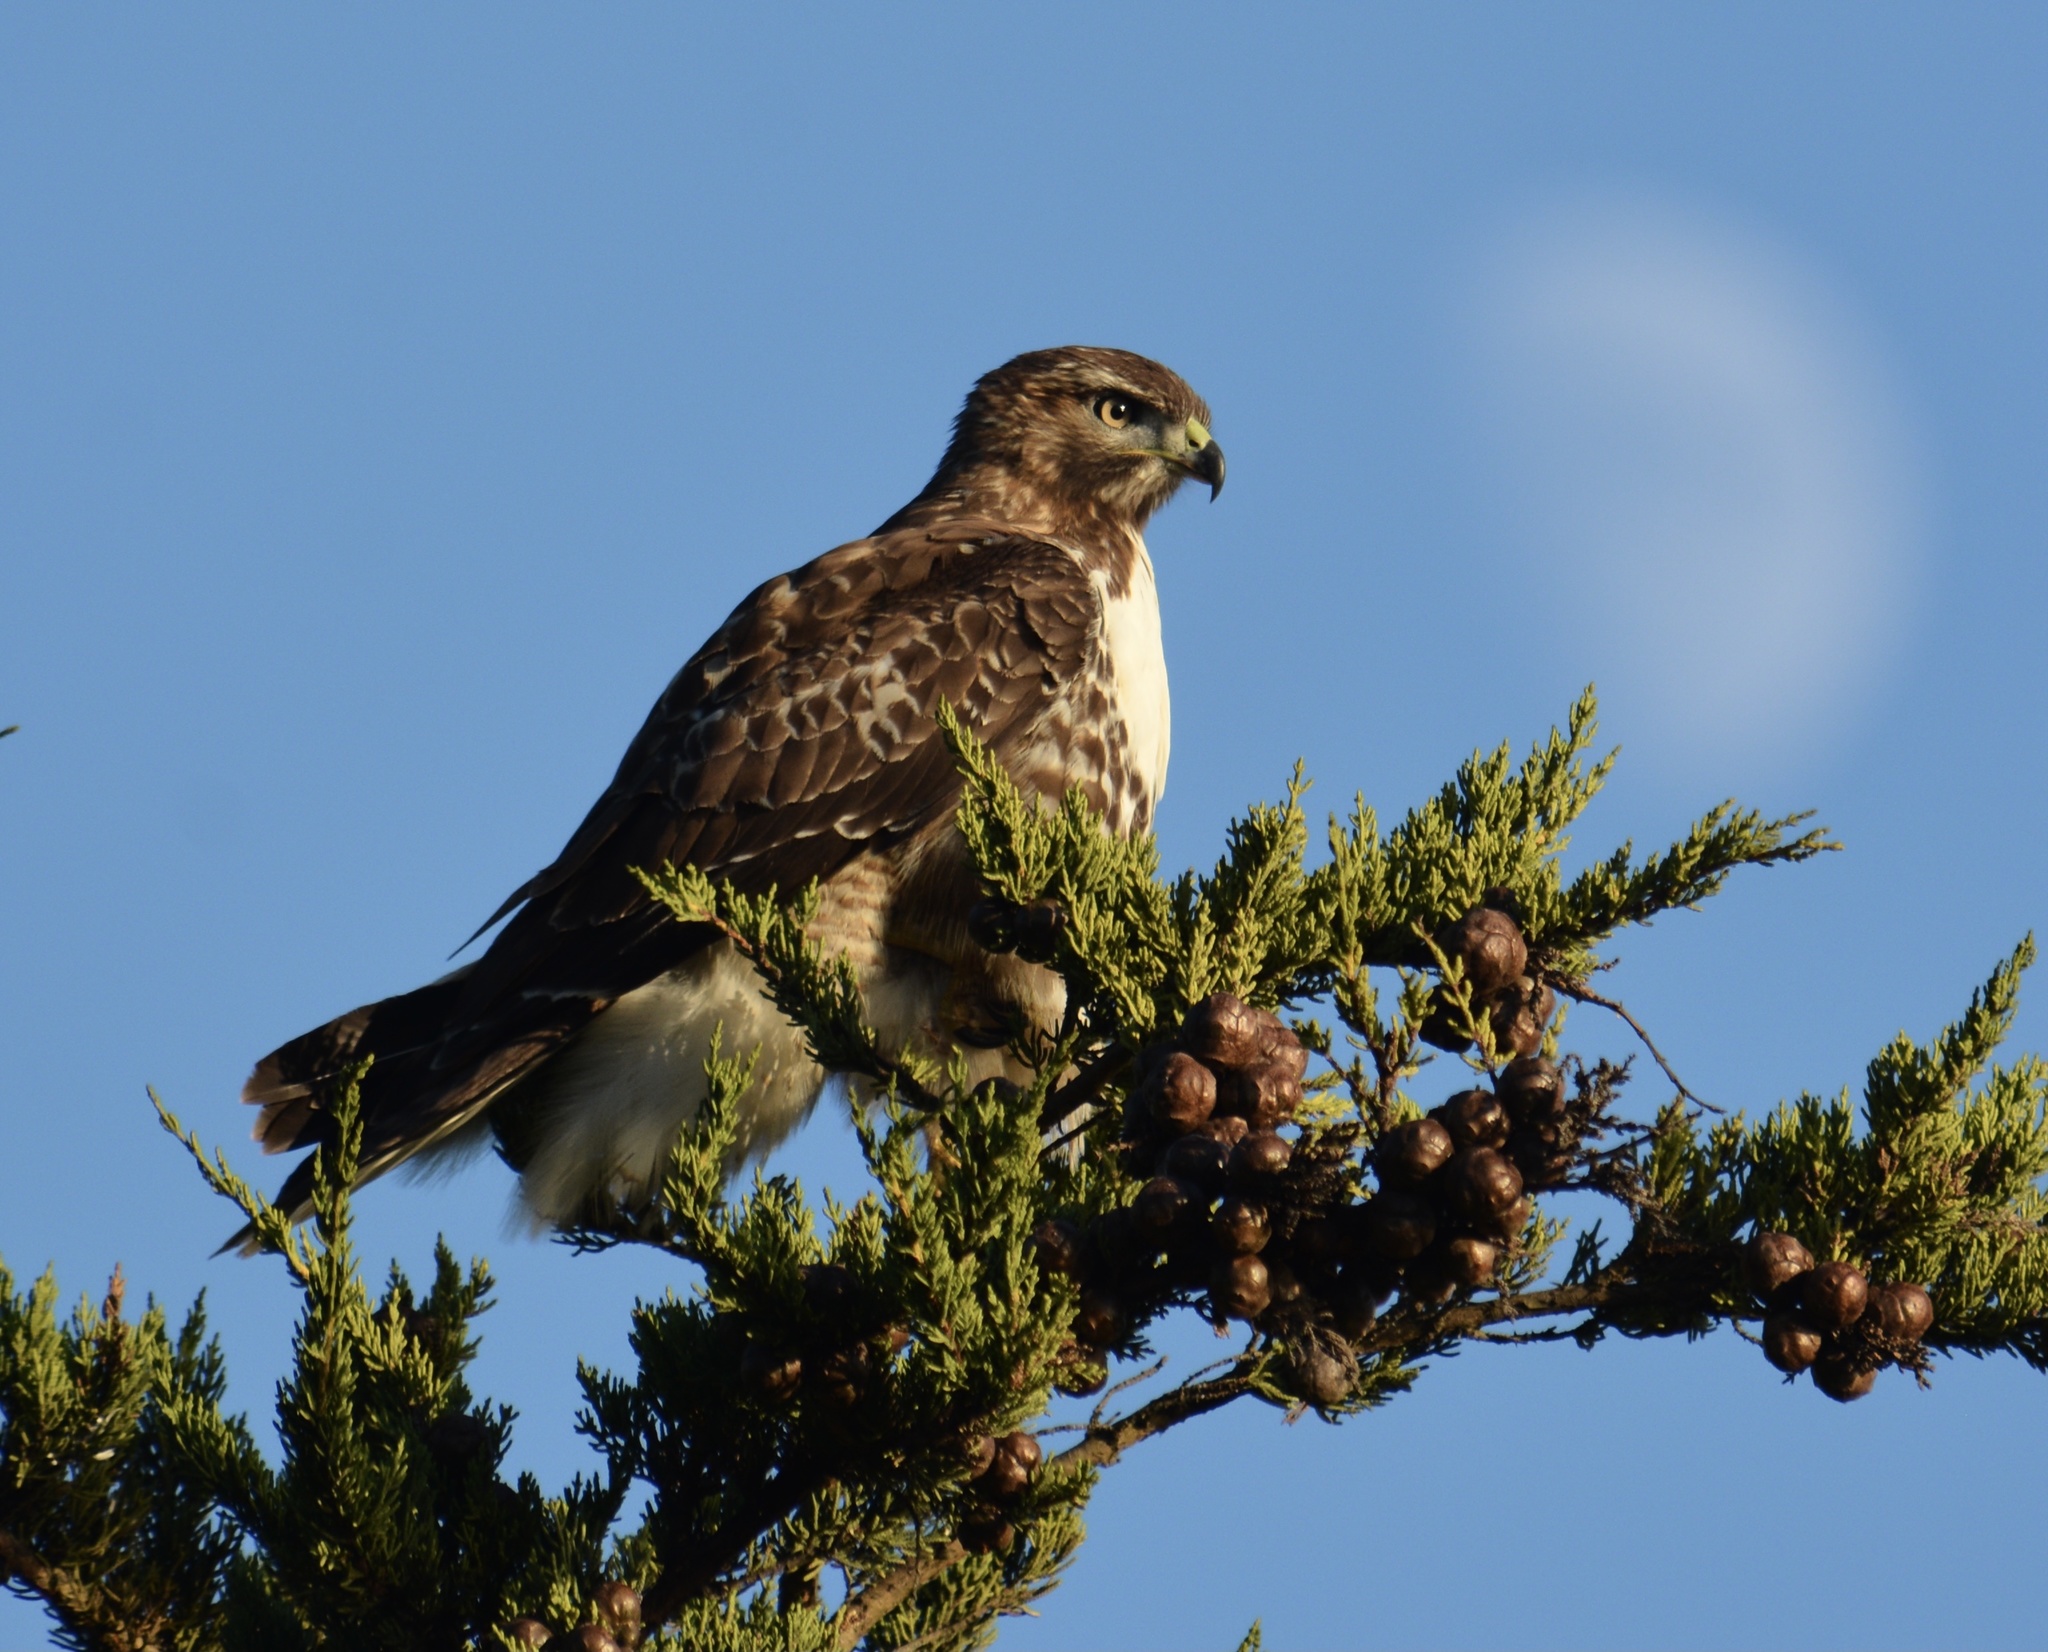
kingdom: Animalia
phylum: Chordata
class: Aves
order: Accipitriformes
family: Accipitridae
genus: Buteo
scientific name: Buteo jamaicensis
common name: Red-tailed hawk
